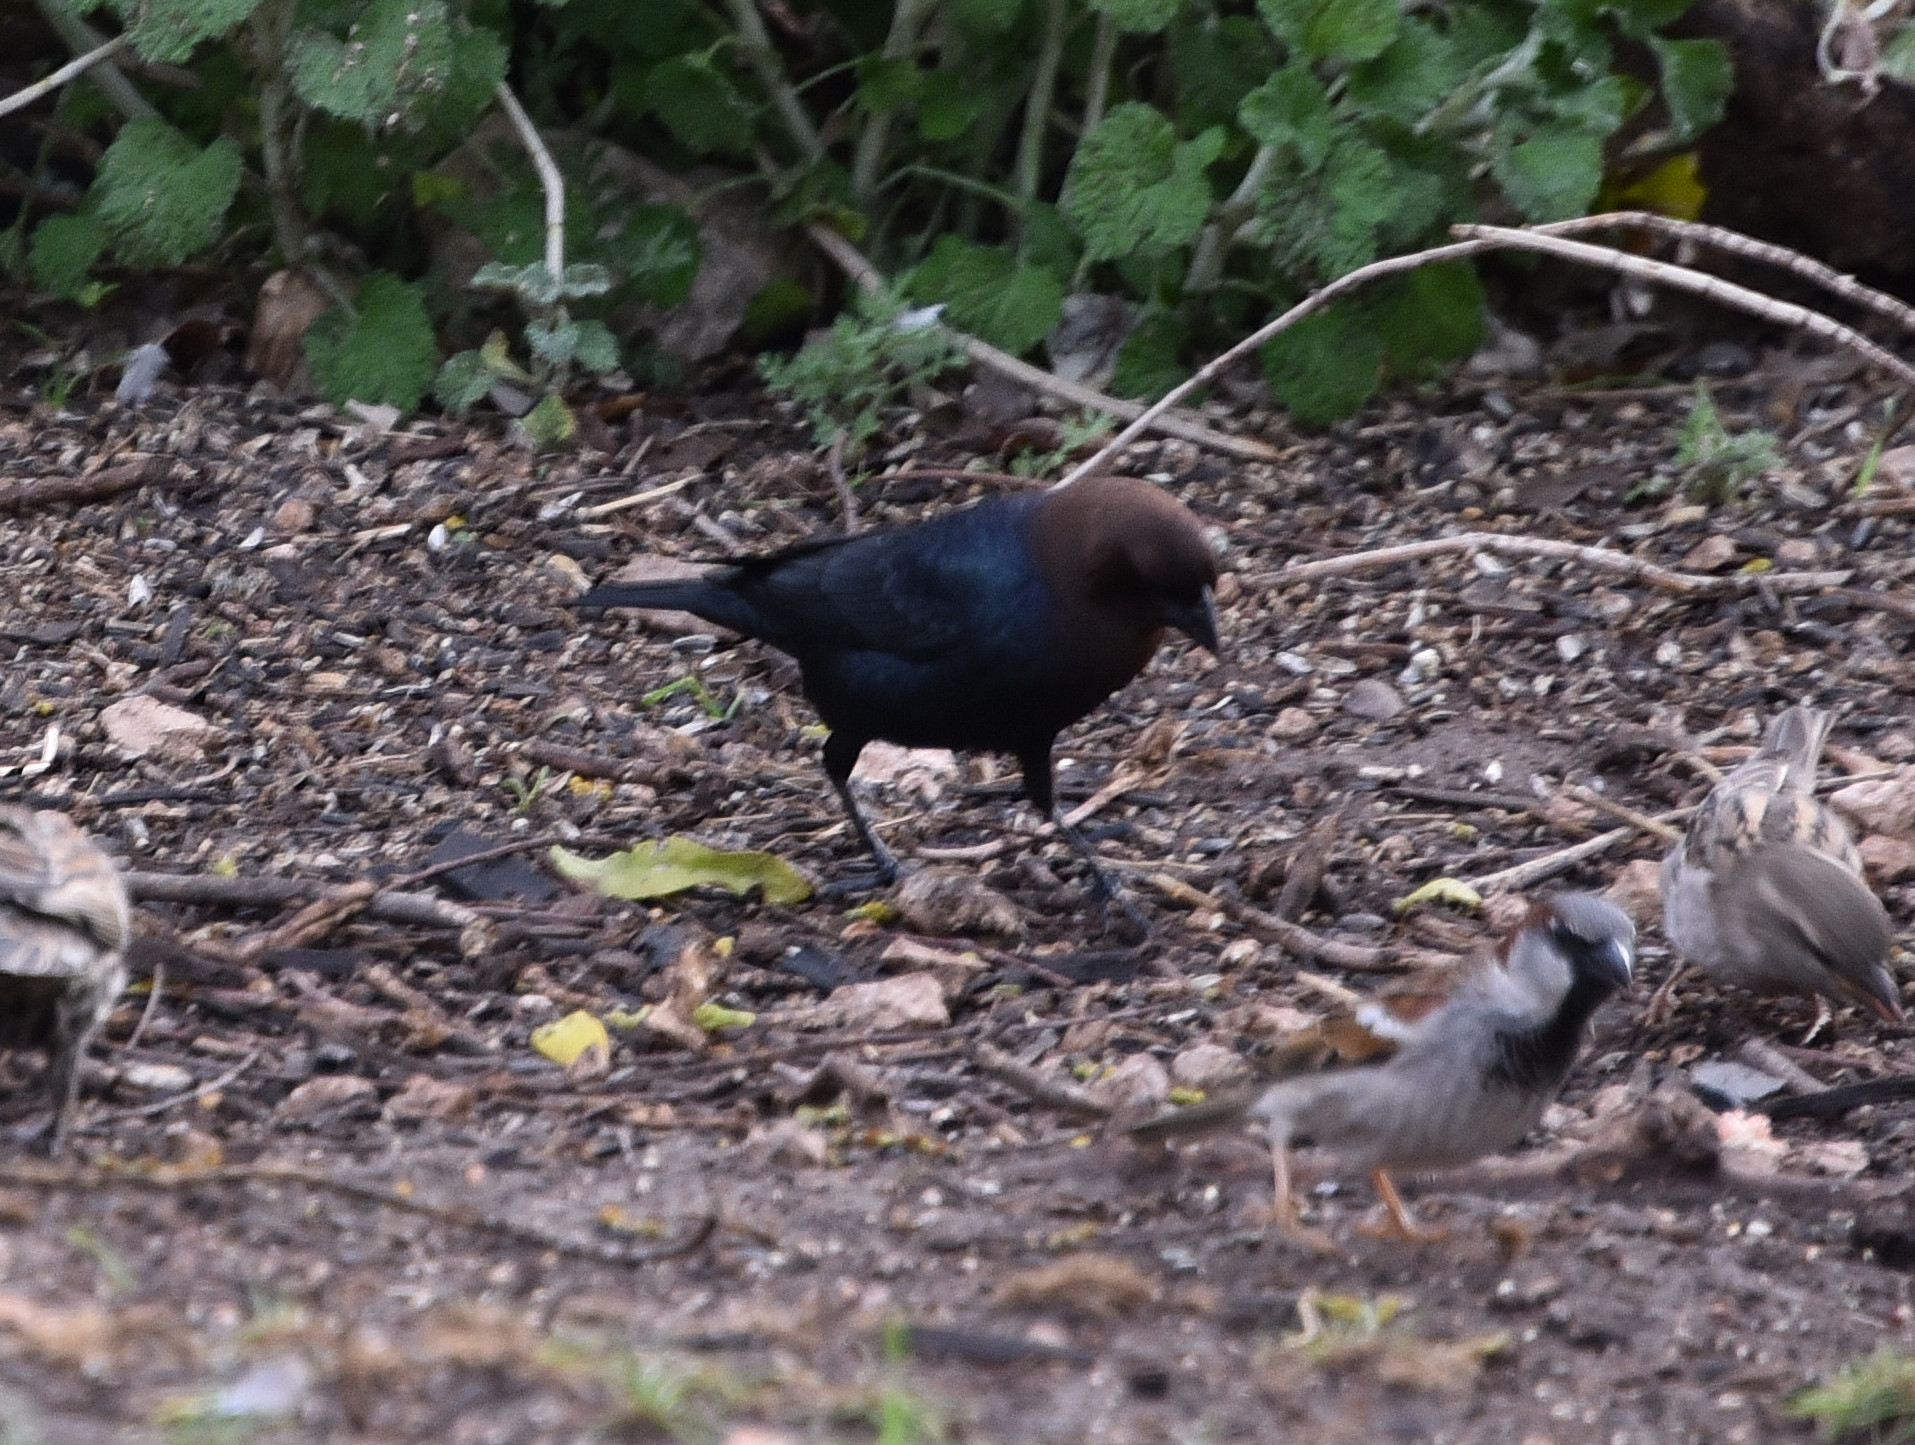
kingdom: Animalia
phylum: Chordata
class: Aves
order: Passeriformes
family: Icteridae
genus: Molothrus
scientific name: Molothrus ater
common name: Brown-headed cowbird
